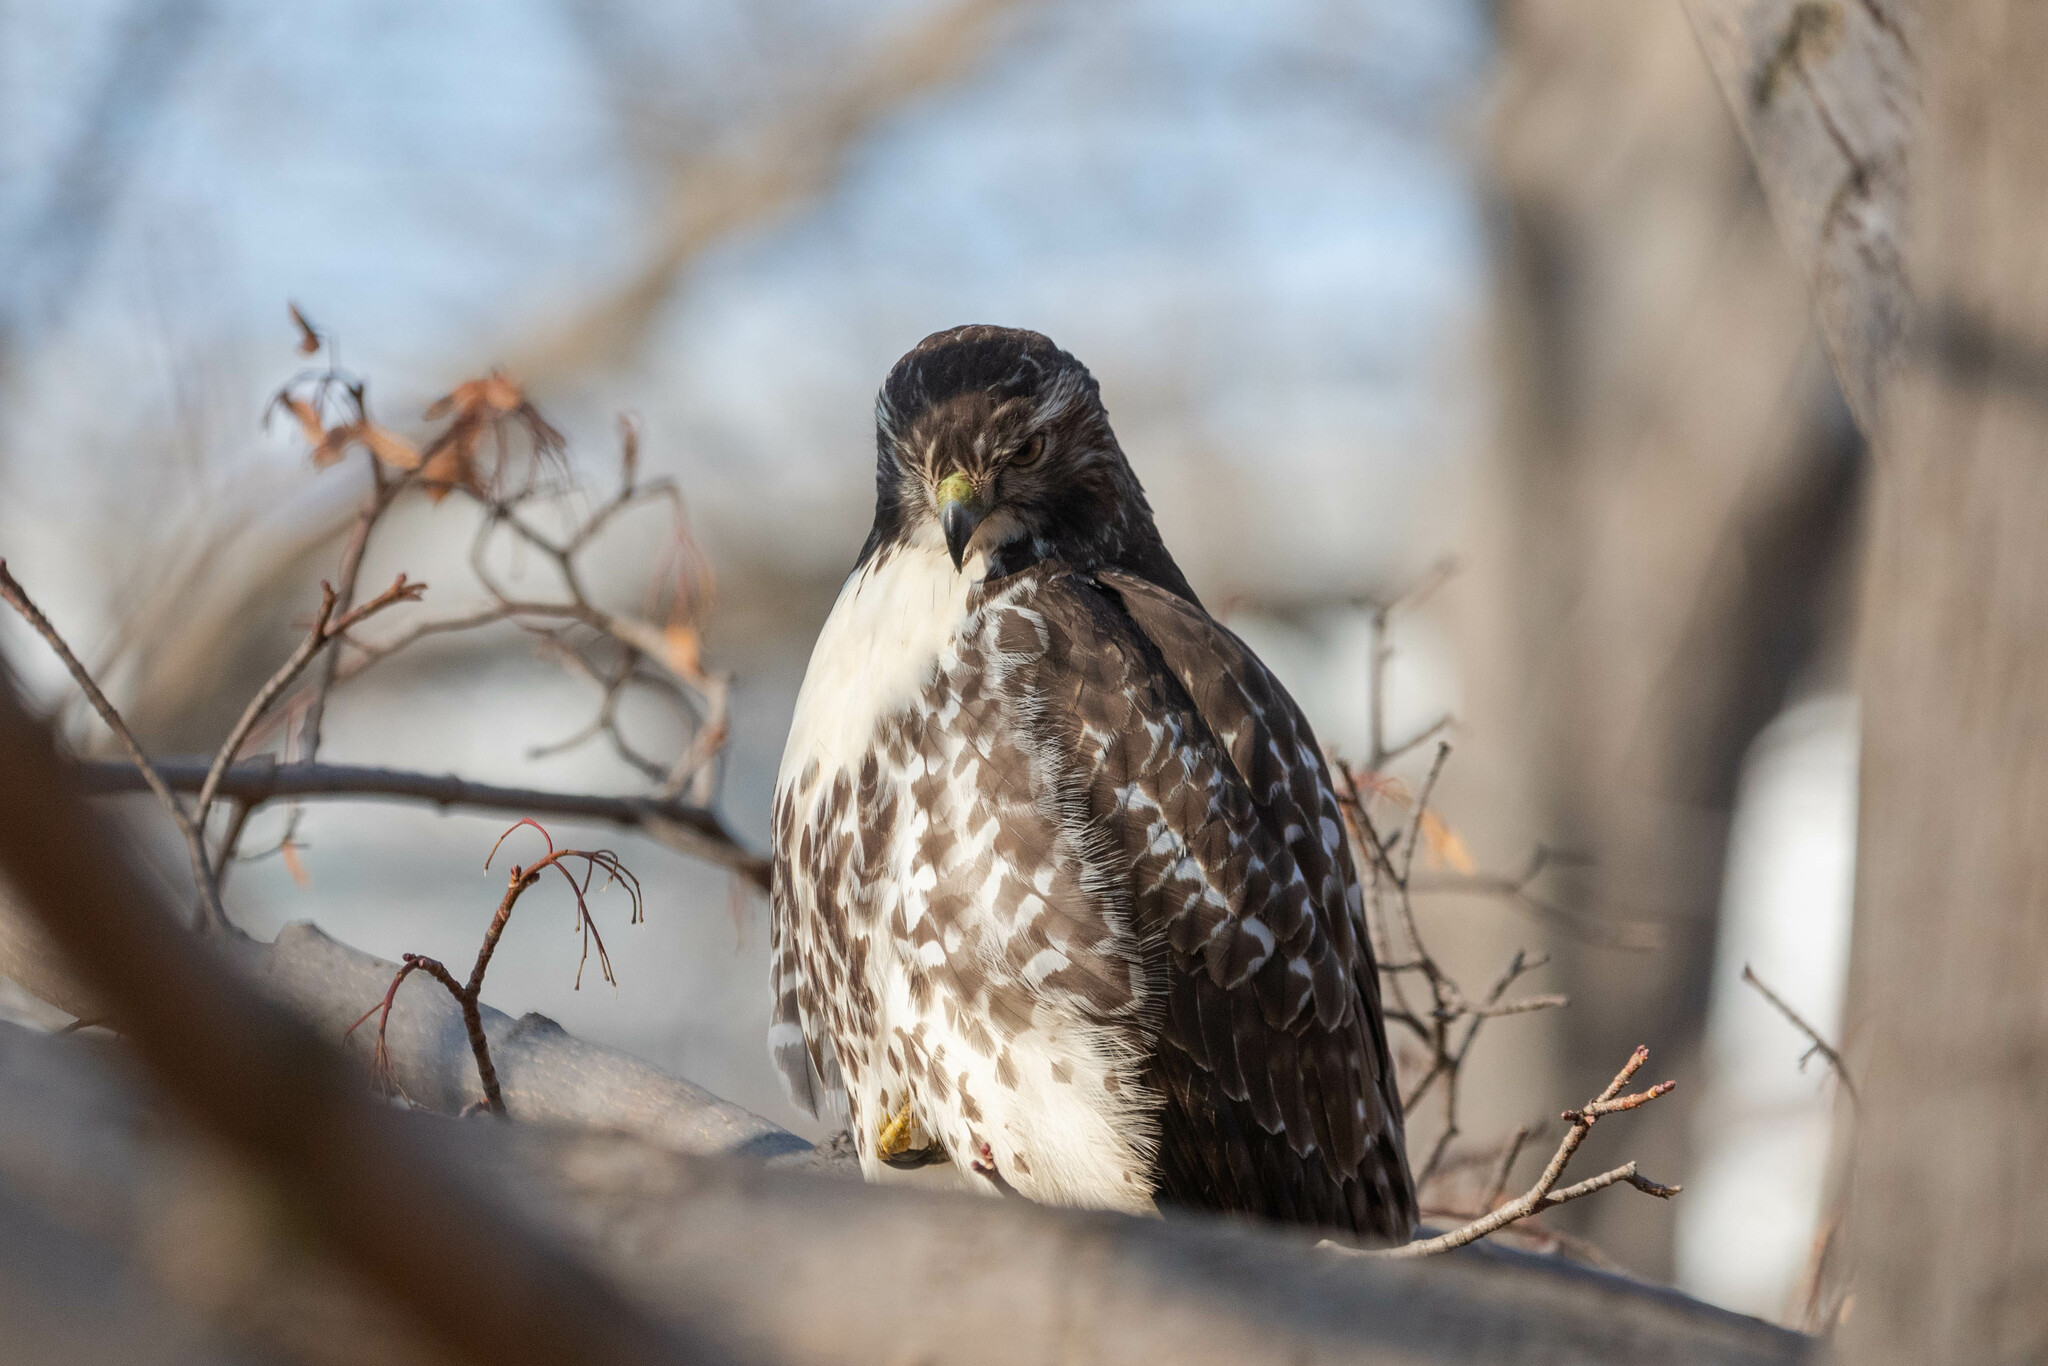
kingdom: Animalia
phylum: Chordata
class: Aves
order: Accipitriformes
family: Accipitridae
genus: Buteo
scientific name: Buteo jamaicensis
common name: Red-tailed hawk
